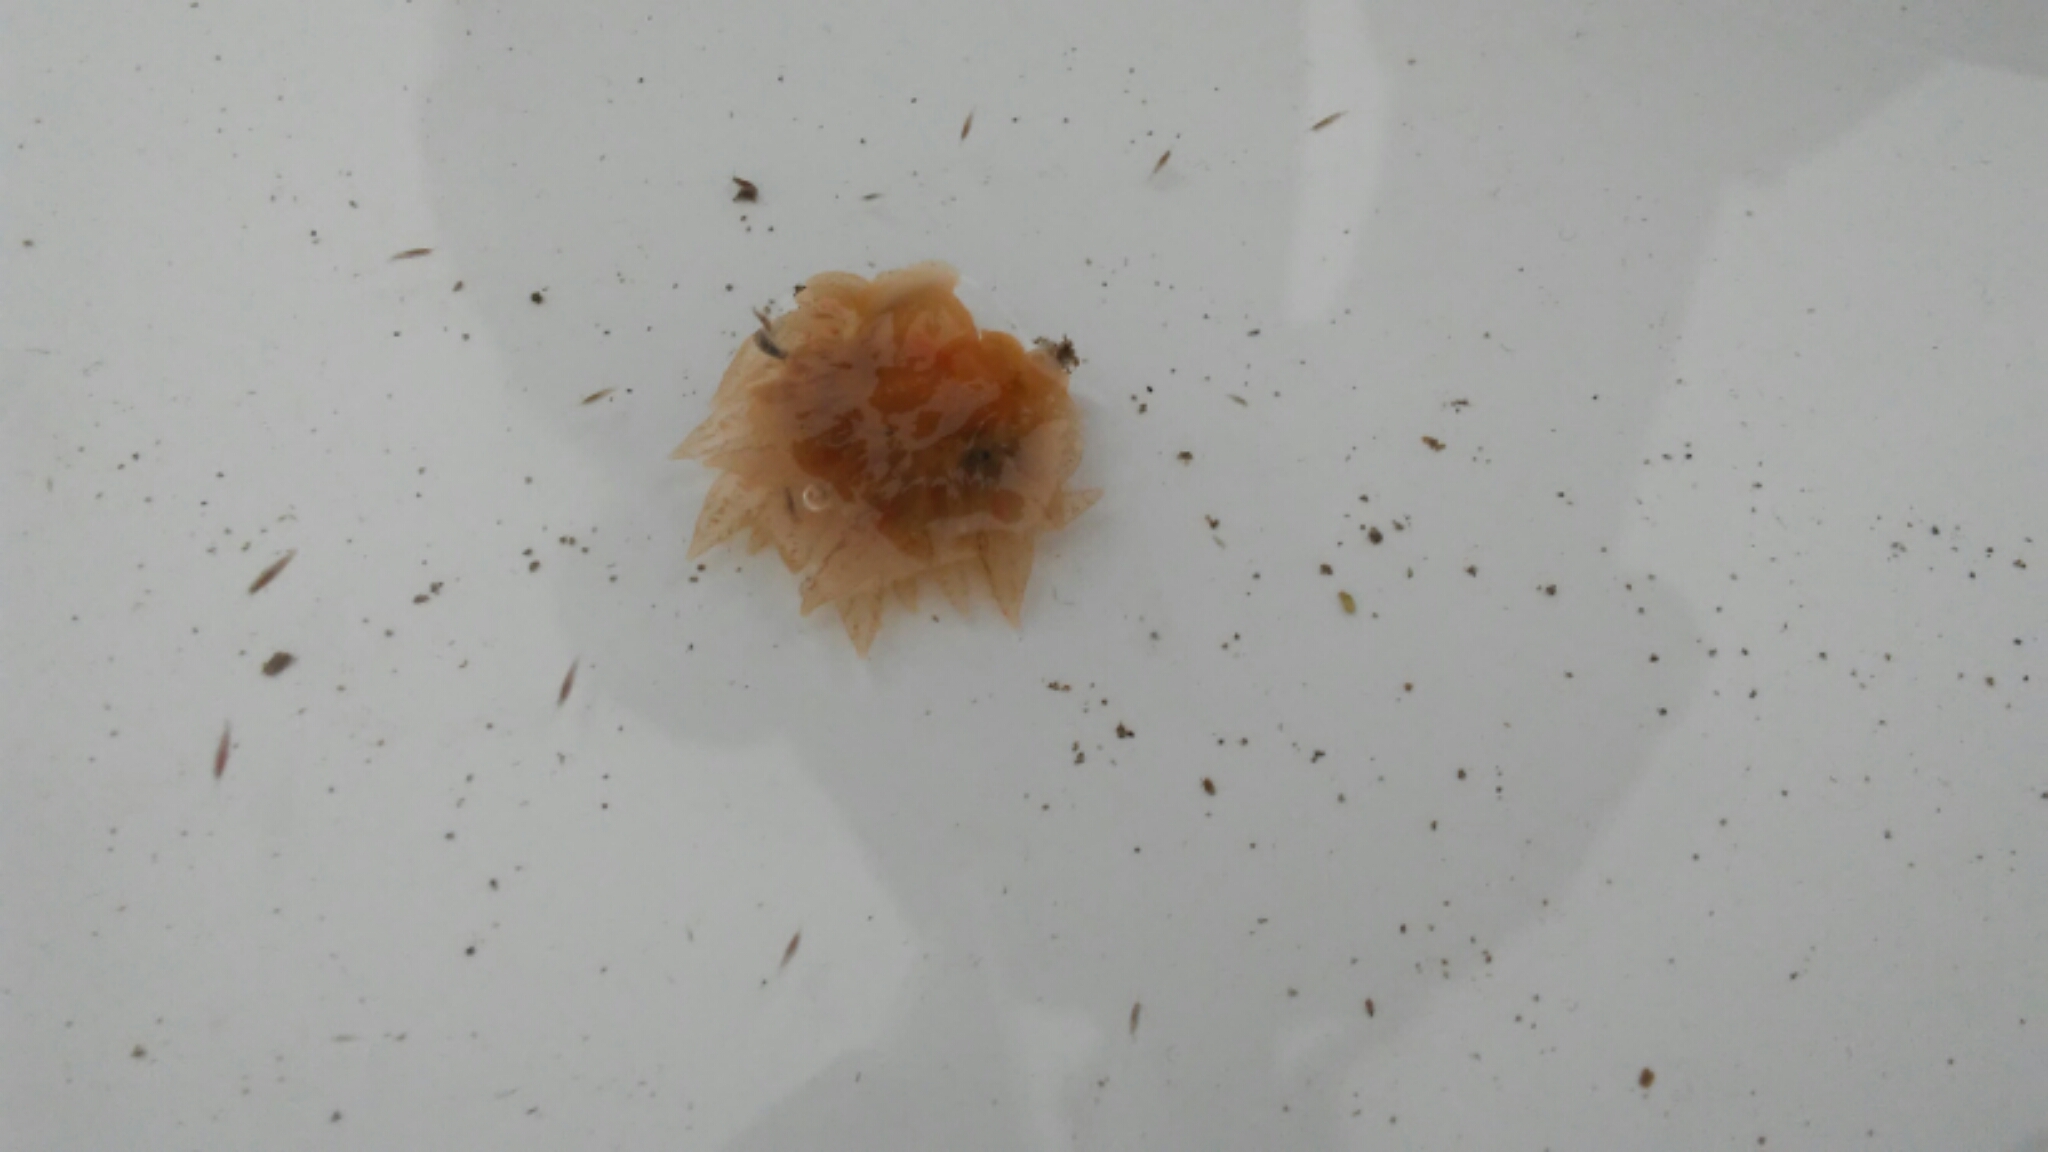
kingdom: Animalia
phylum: Mollusca
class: Gastropoda
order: Nudibranchia
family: Dironidae
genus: Dirona
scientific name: Dirona picta
